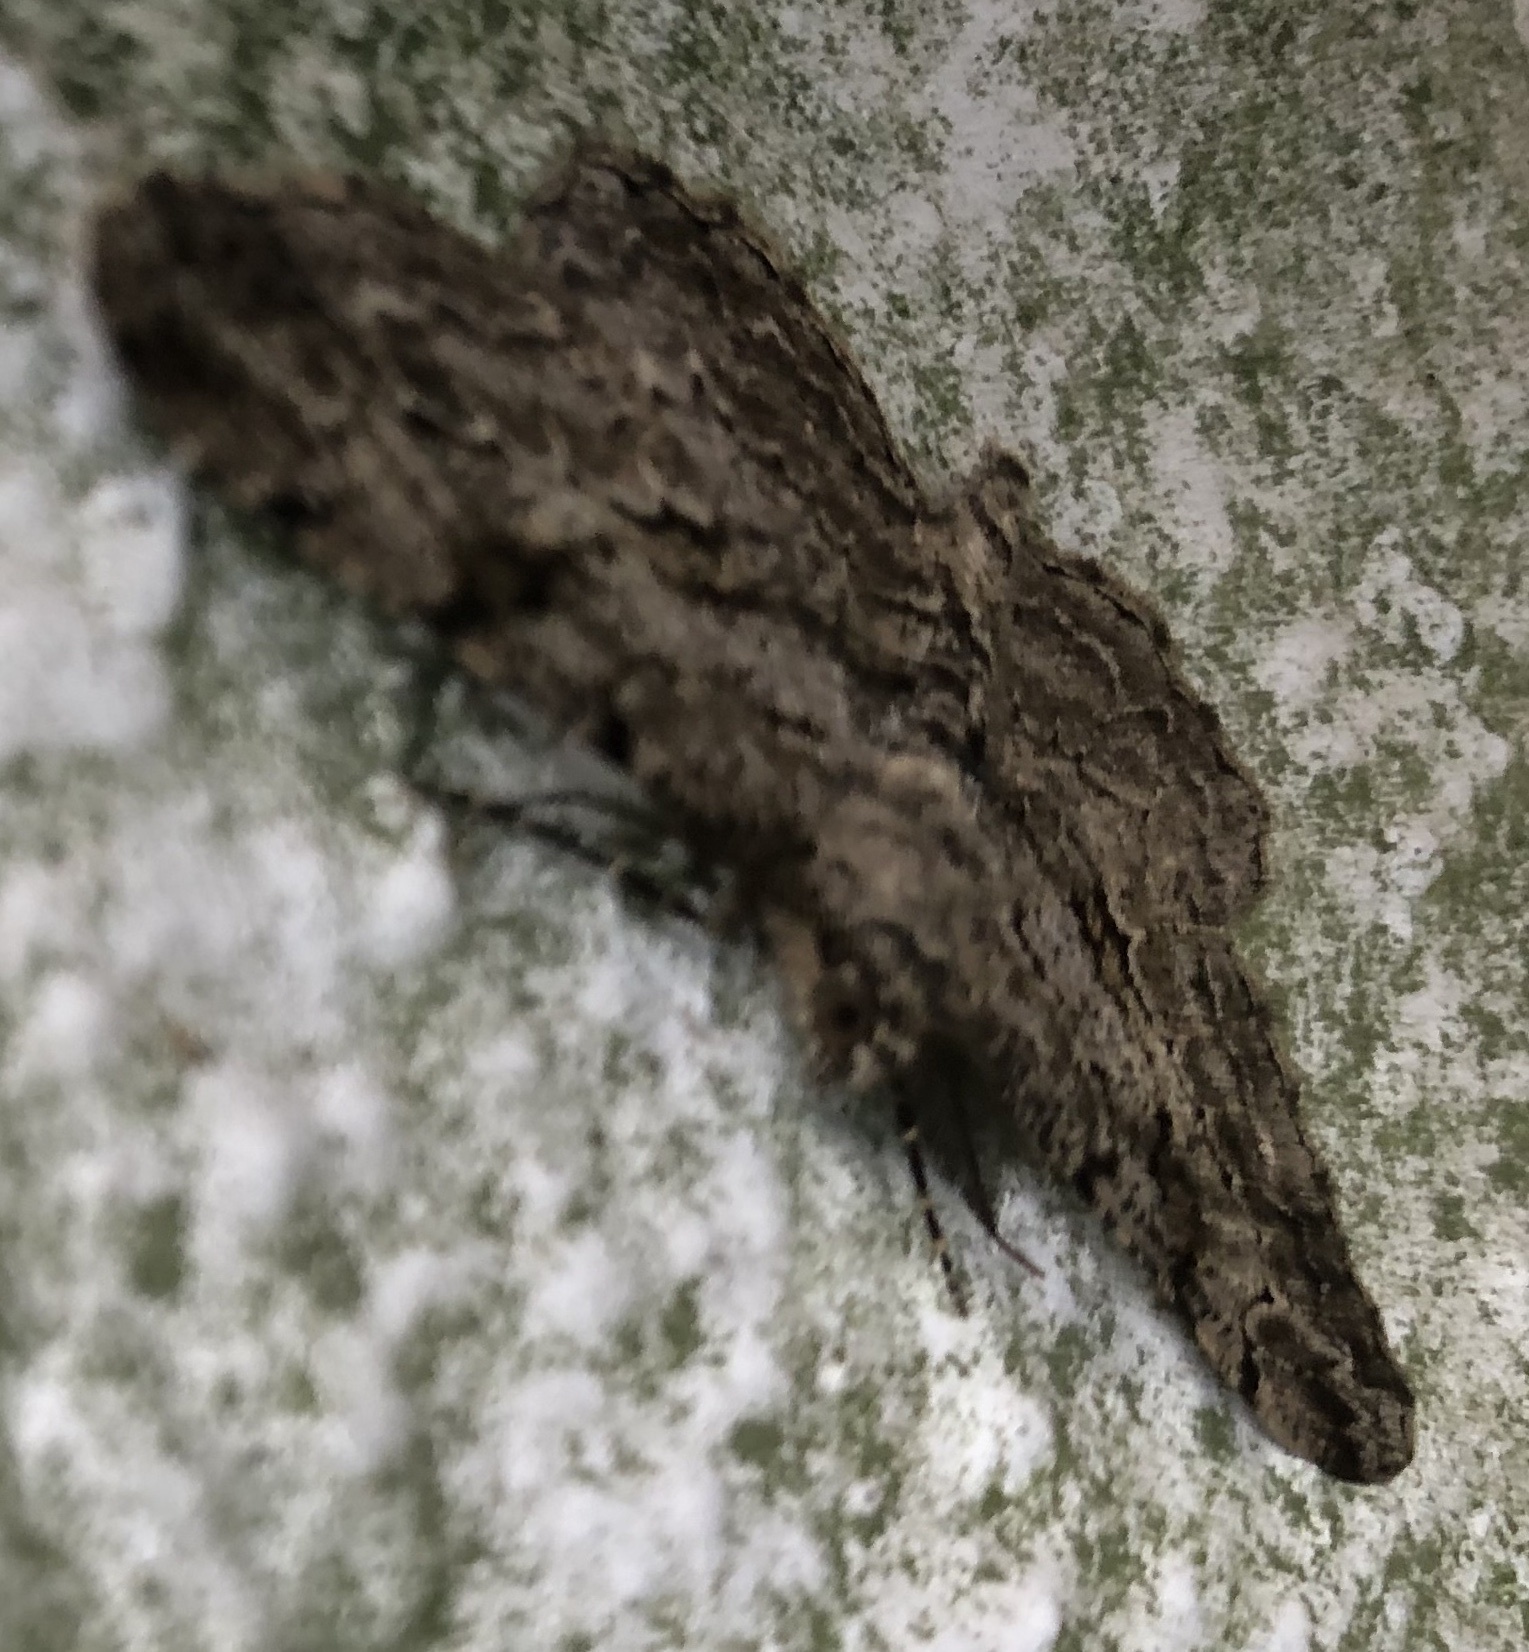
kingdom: Animalia
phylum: Arthropoda
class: Insecta
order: Lepidoptera
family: Geometridae
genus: Peribatodes
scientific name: Peribatodes rhomboidaria
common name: Willow beauty
